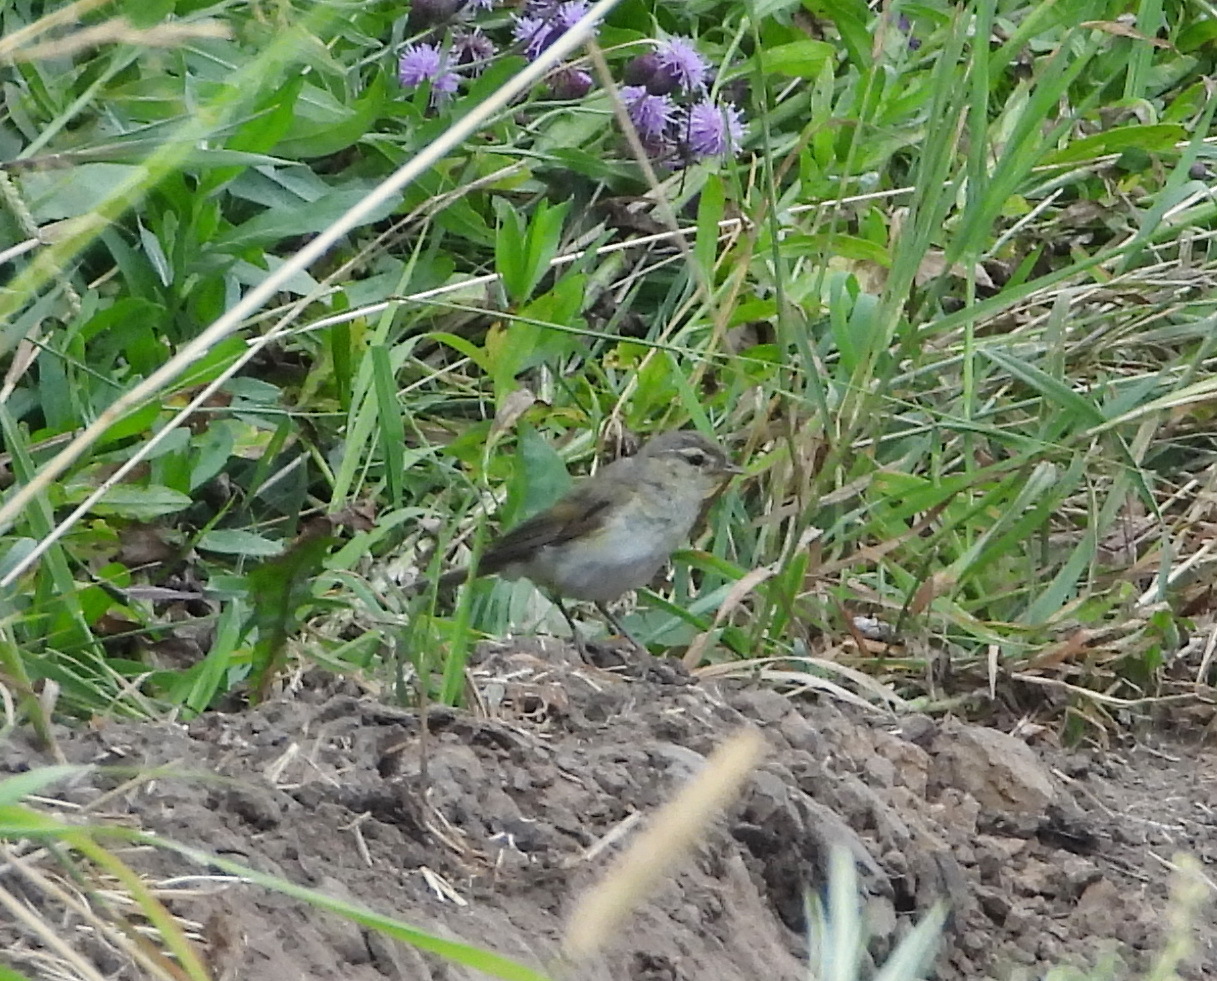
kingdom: Animalia
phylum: Chordata
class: Aves
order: Passeriformes
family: Phylloscopidae
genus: Phylloscopus
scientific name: Phylloscopus collybita
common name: Common chiffchaff
